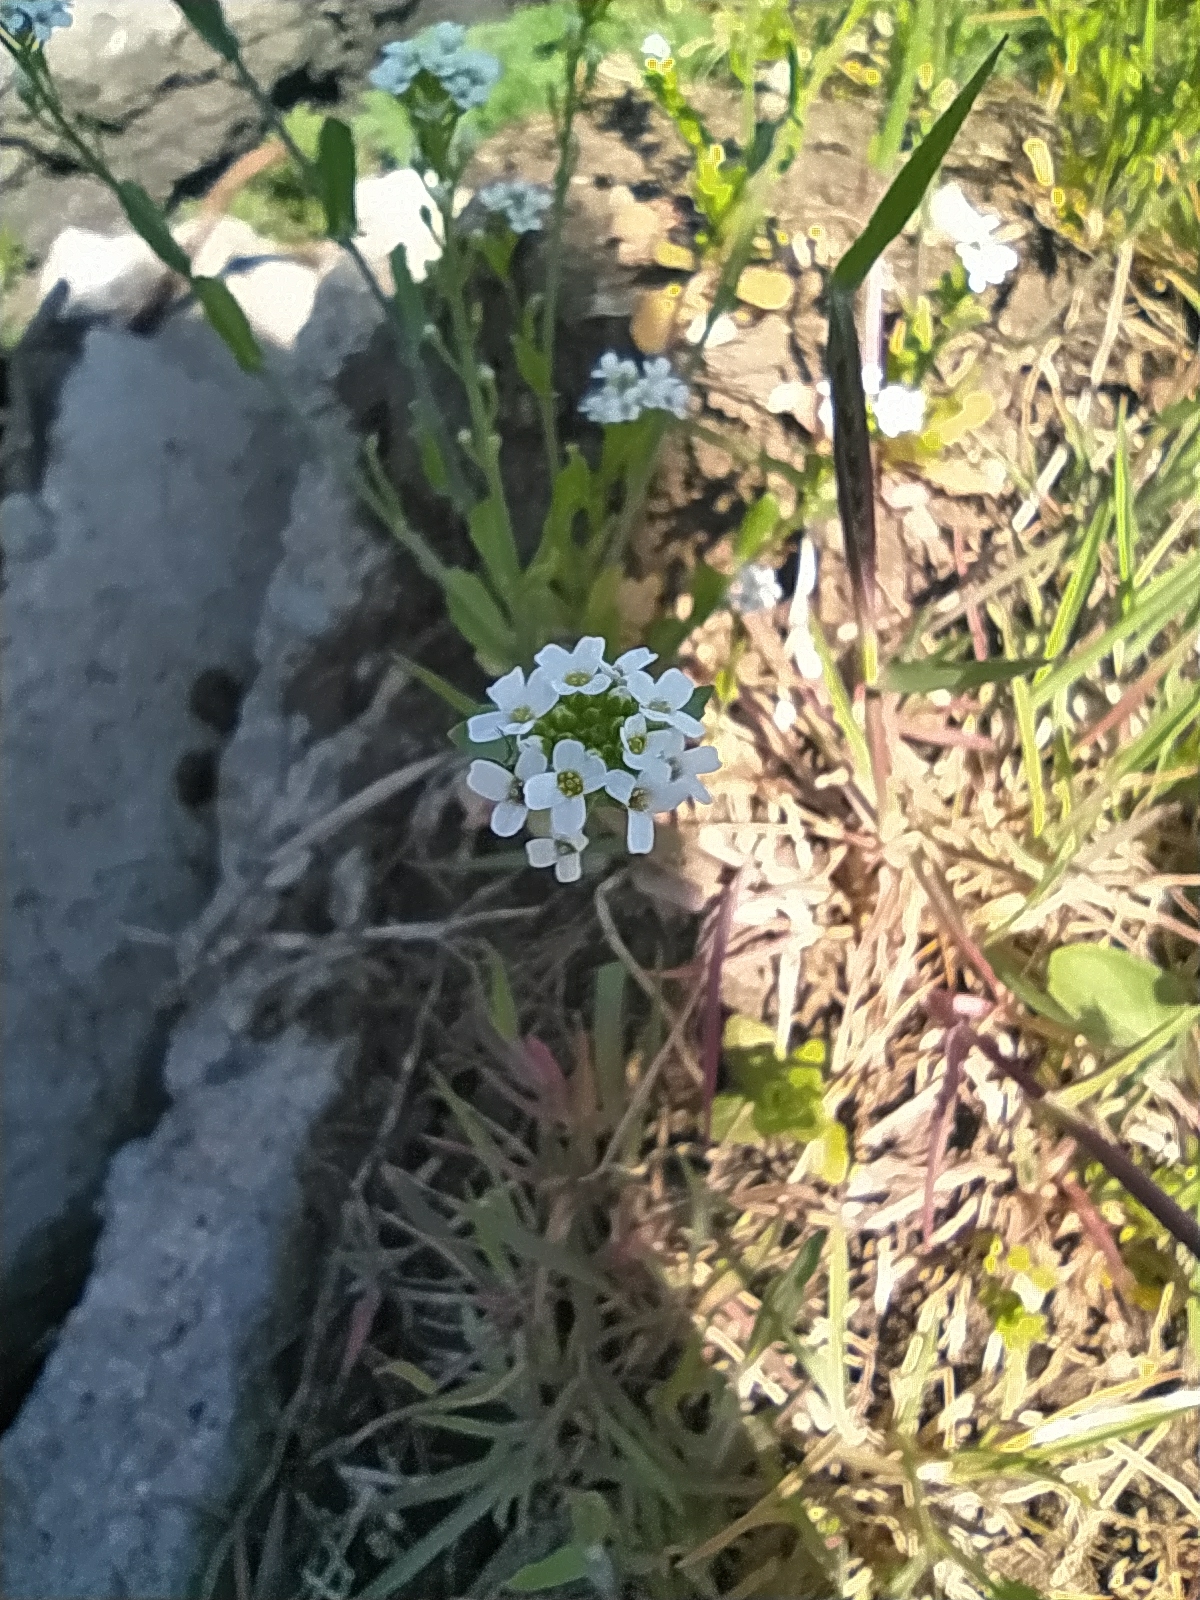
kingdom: Plantae
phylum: Tracheophyta
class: Magnoliopsida
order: Brassicales
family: Brassicaceae
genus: Calepina
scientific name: Calepina irregularis
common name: White ballmustard
